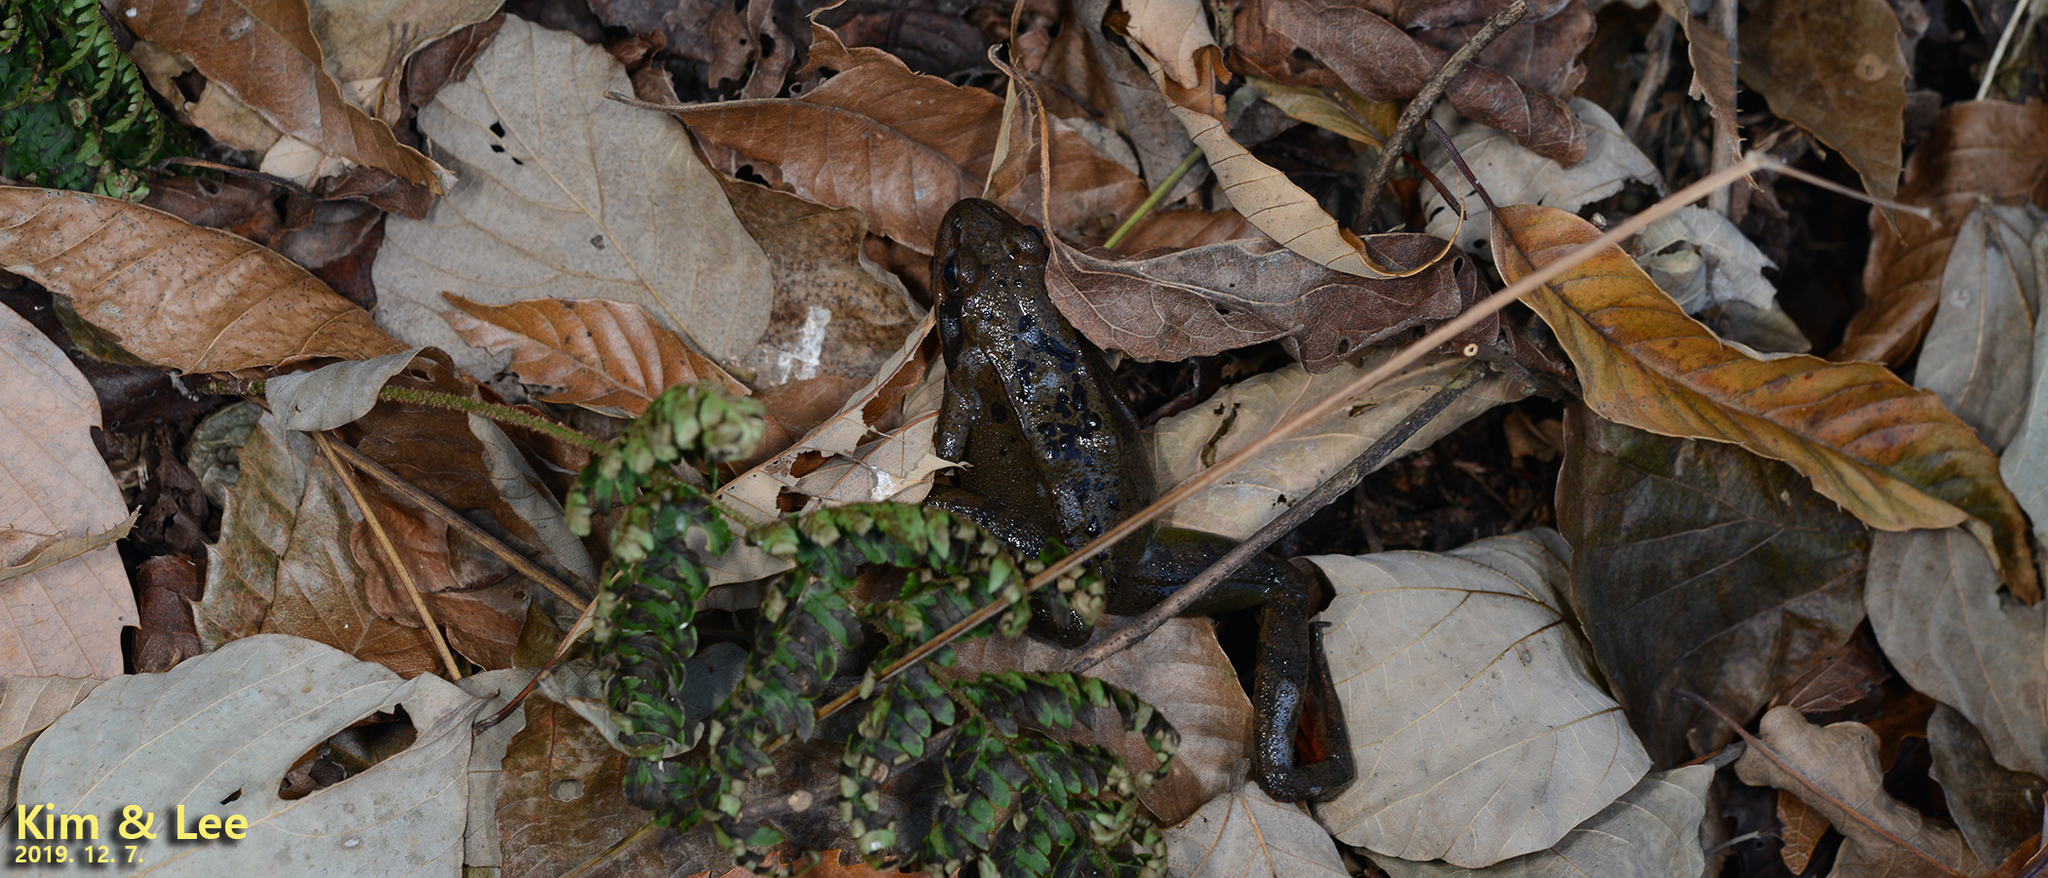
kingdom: Animalia
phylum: Chordata
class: Amphibia
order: Anura
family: Ranidae
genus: Rana
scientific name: Rana dybowskii
